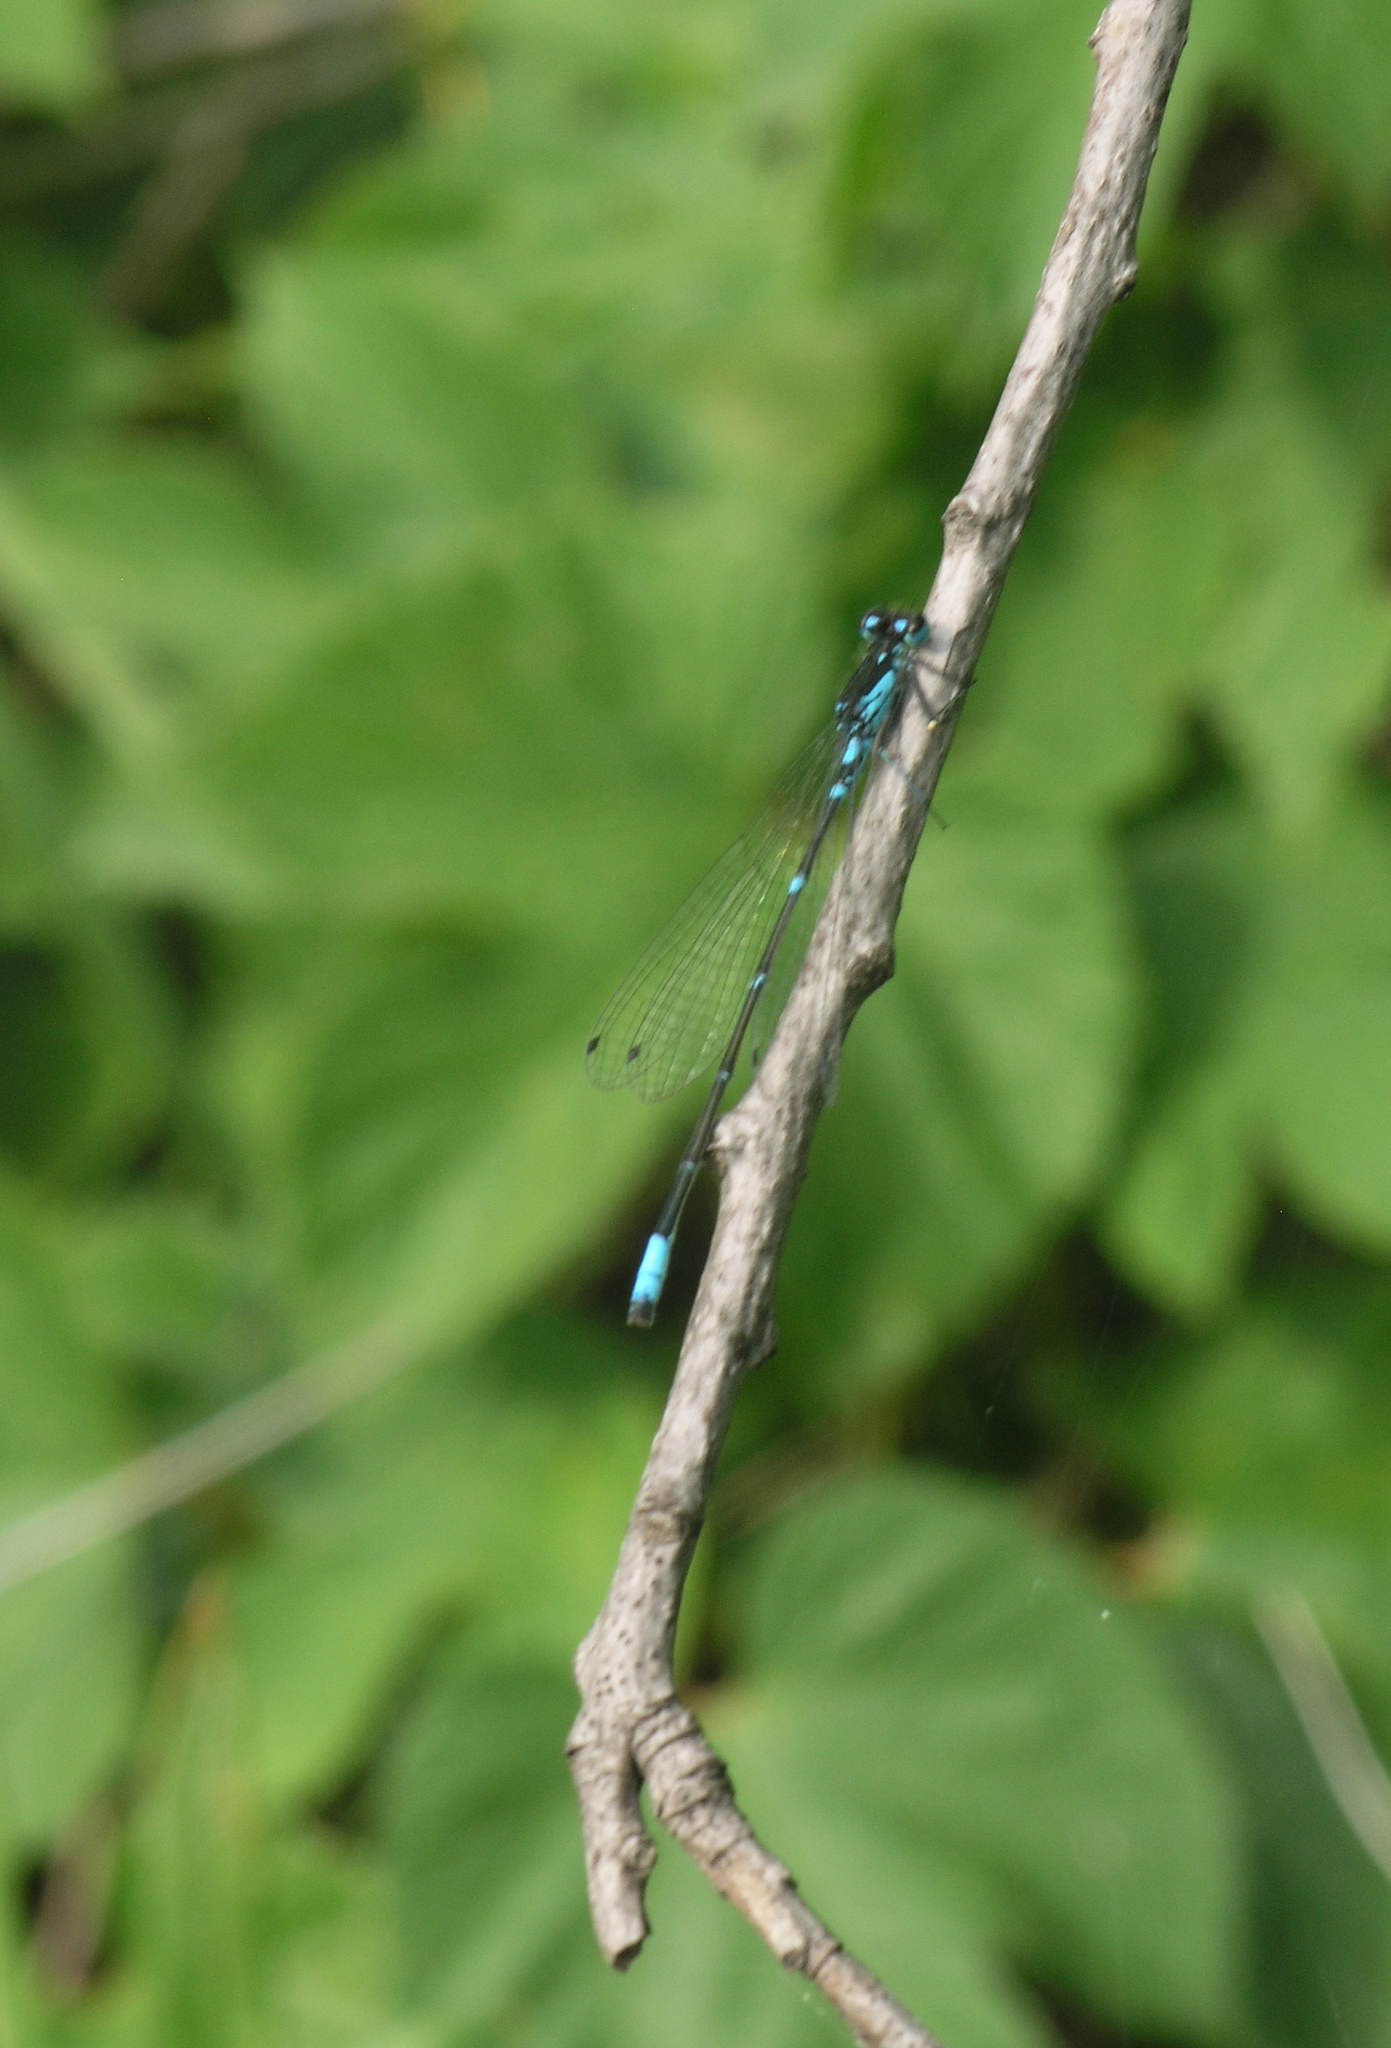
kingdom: Animalia
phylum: Arthropoda
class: Insecta
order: Odonata
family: Coenagrionidae
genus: Coenagrion
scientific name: Coenagrion pulchellum
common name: Variable bluet
